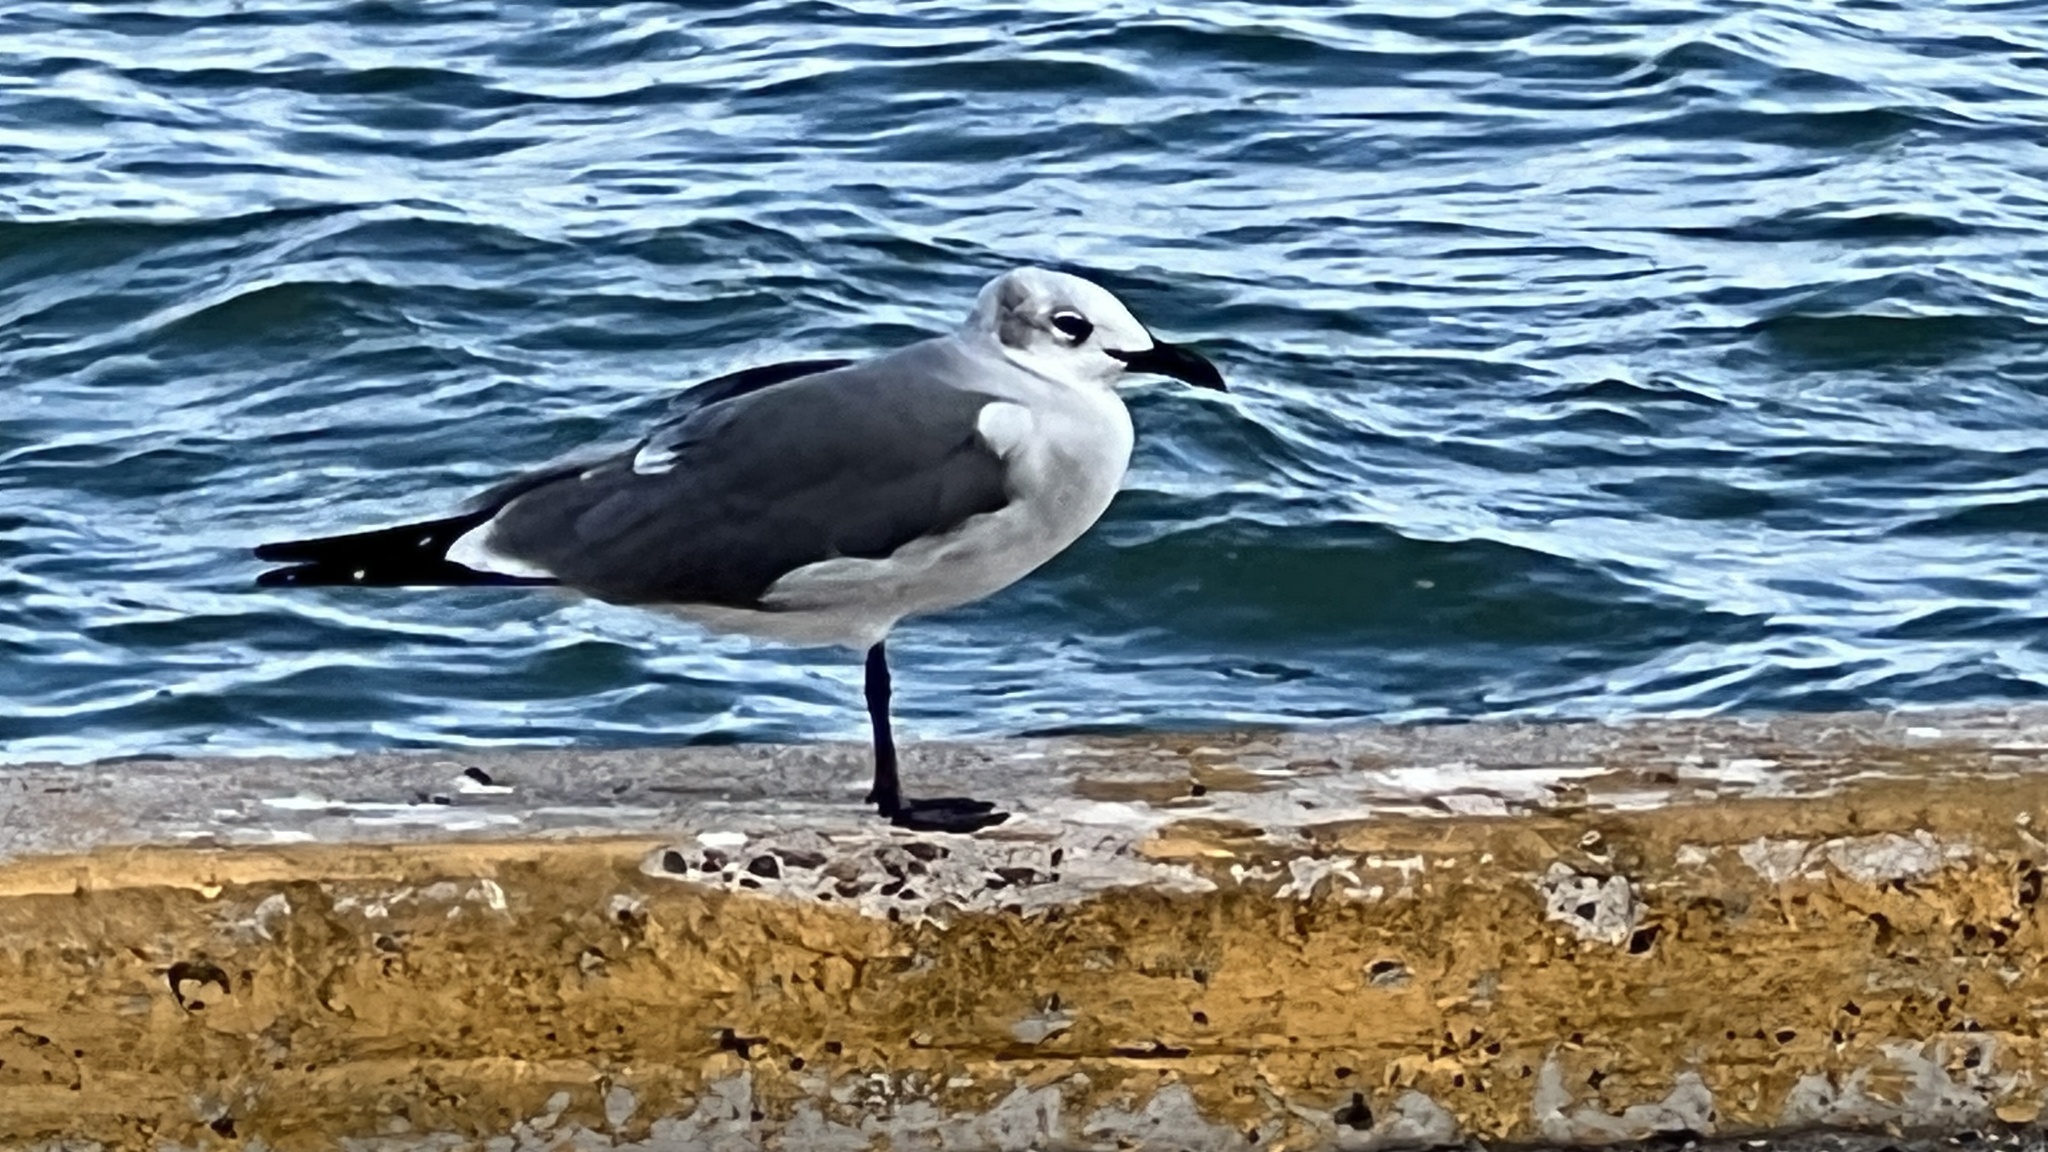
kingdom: Animalia
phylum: Chordata
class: Aves
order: Charadriiformes
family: Laridae
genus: Leucophaeus
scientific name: Leucophaeus atricilla
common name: Laughing gull
